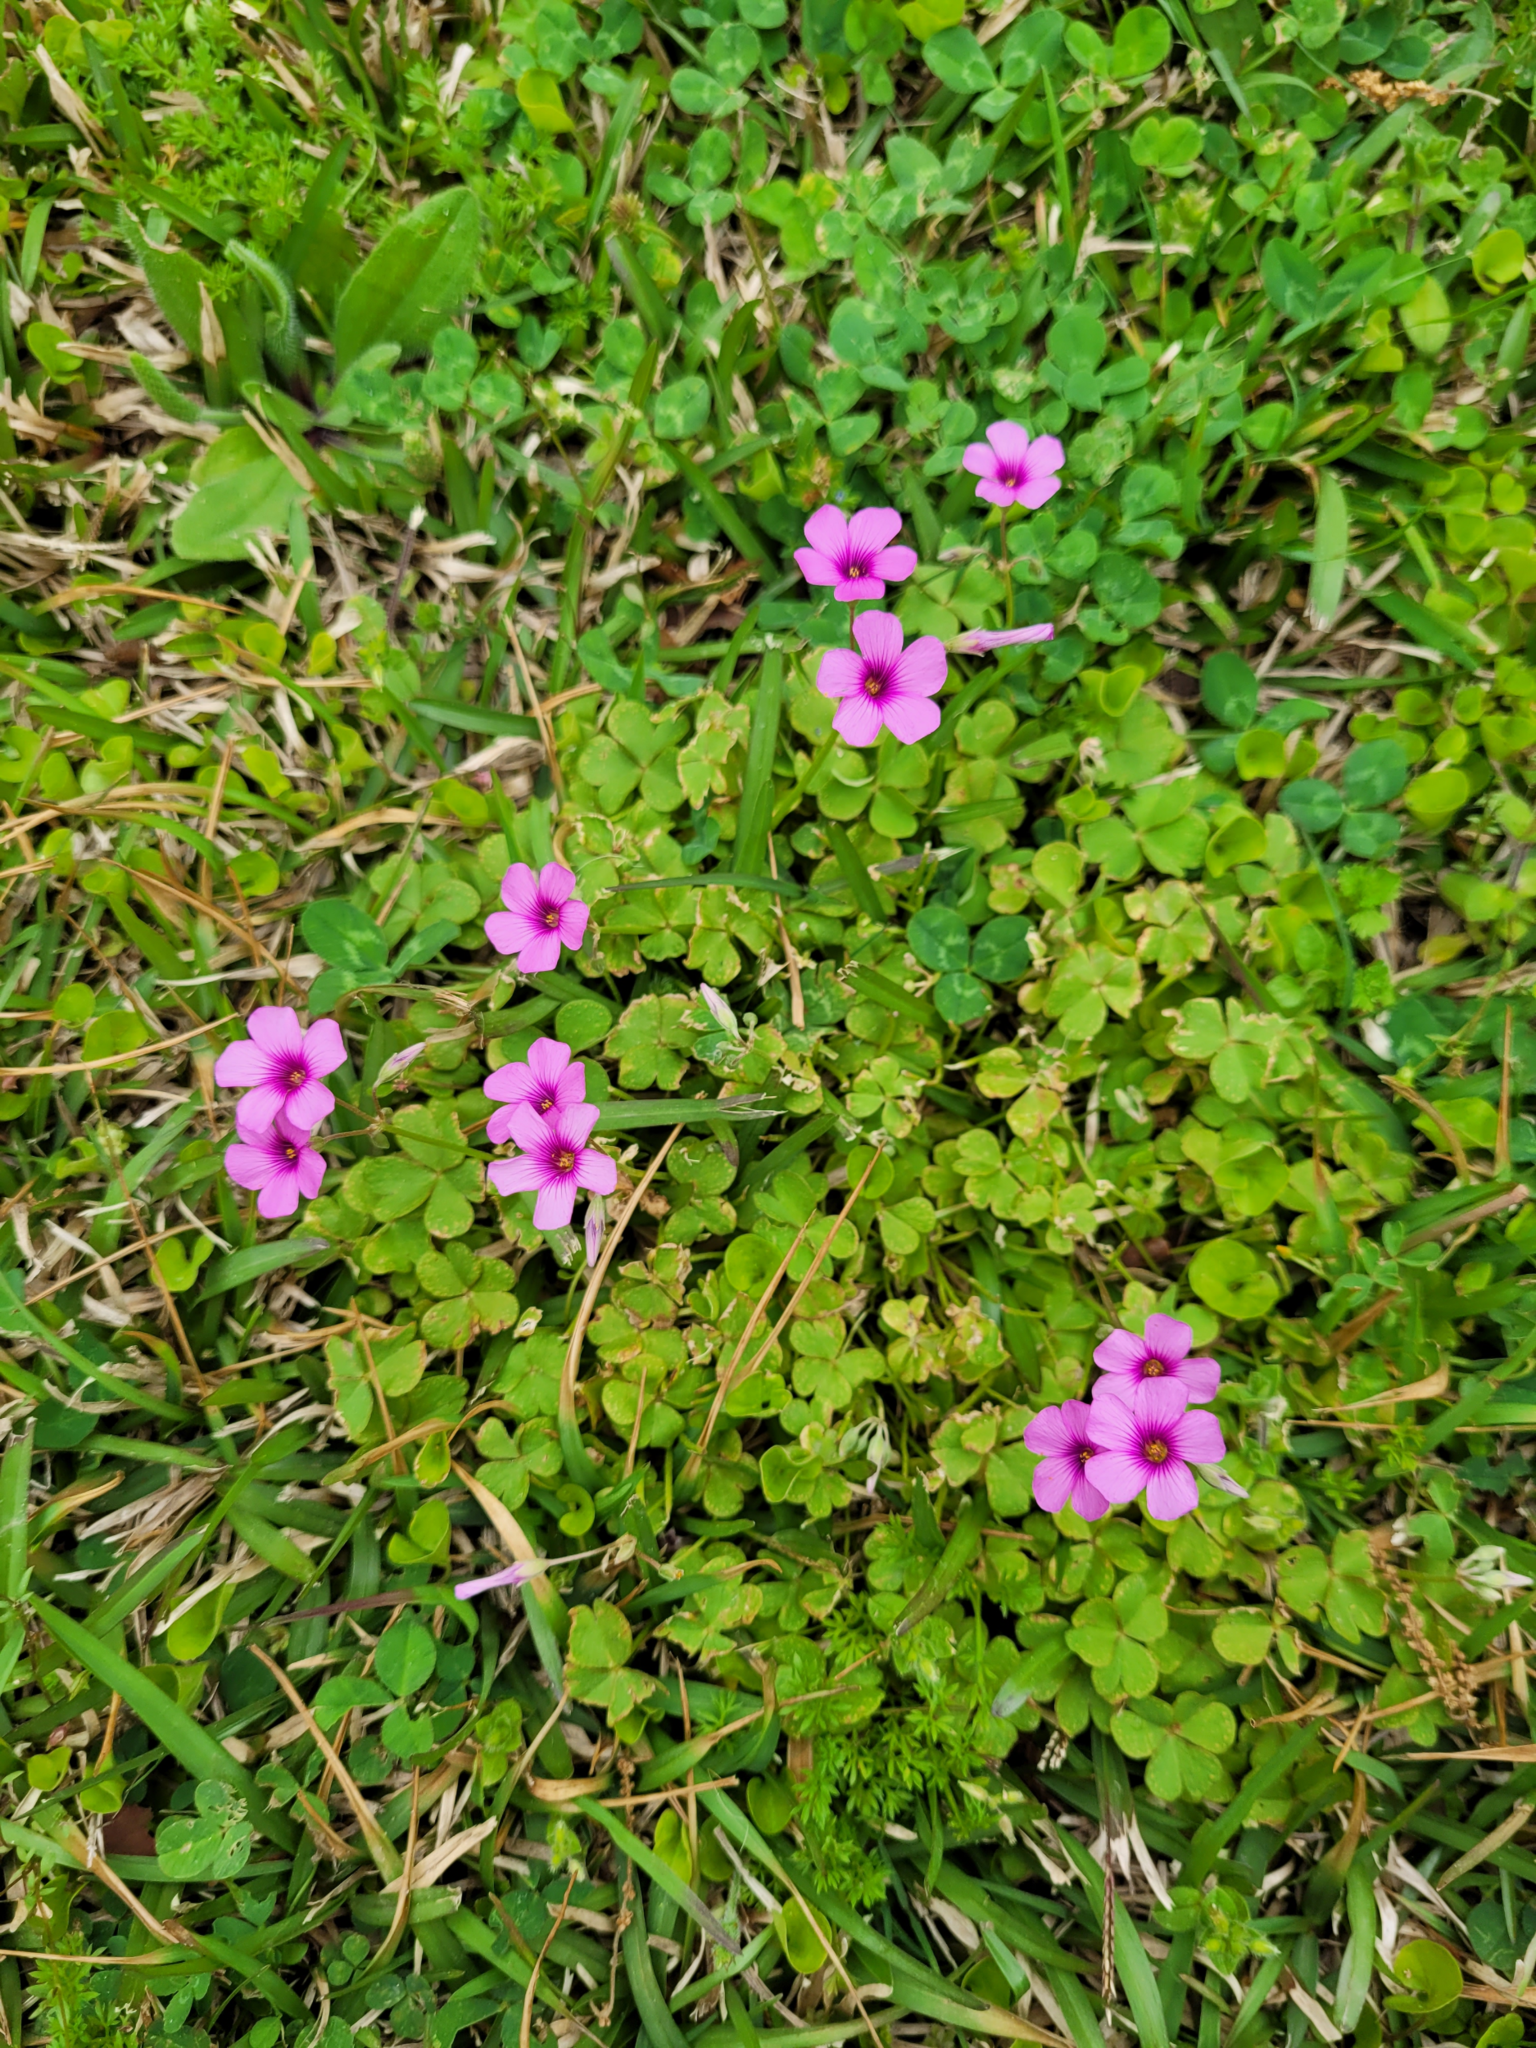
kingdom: Plantae
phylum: Tracheophyta
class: Magnoliopsida
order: Oxalidales
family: Oxalidaceae
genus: Oxalis
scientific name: Oxalis articulata
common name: Pink-sorrel
